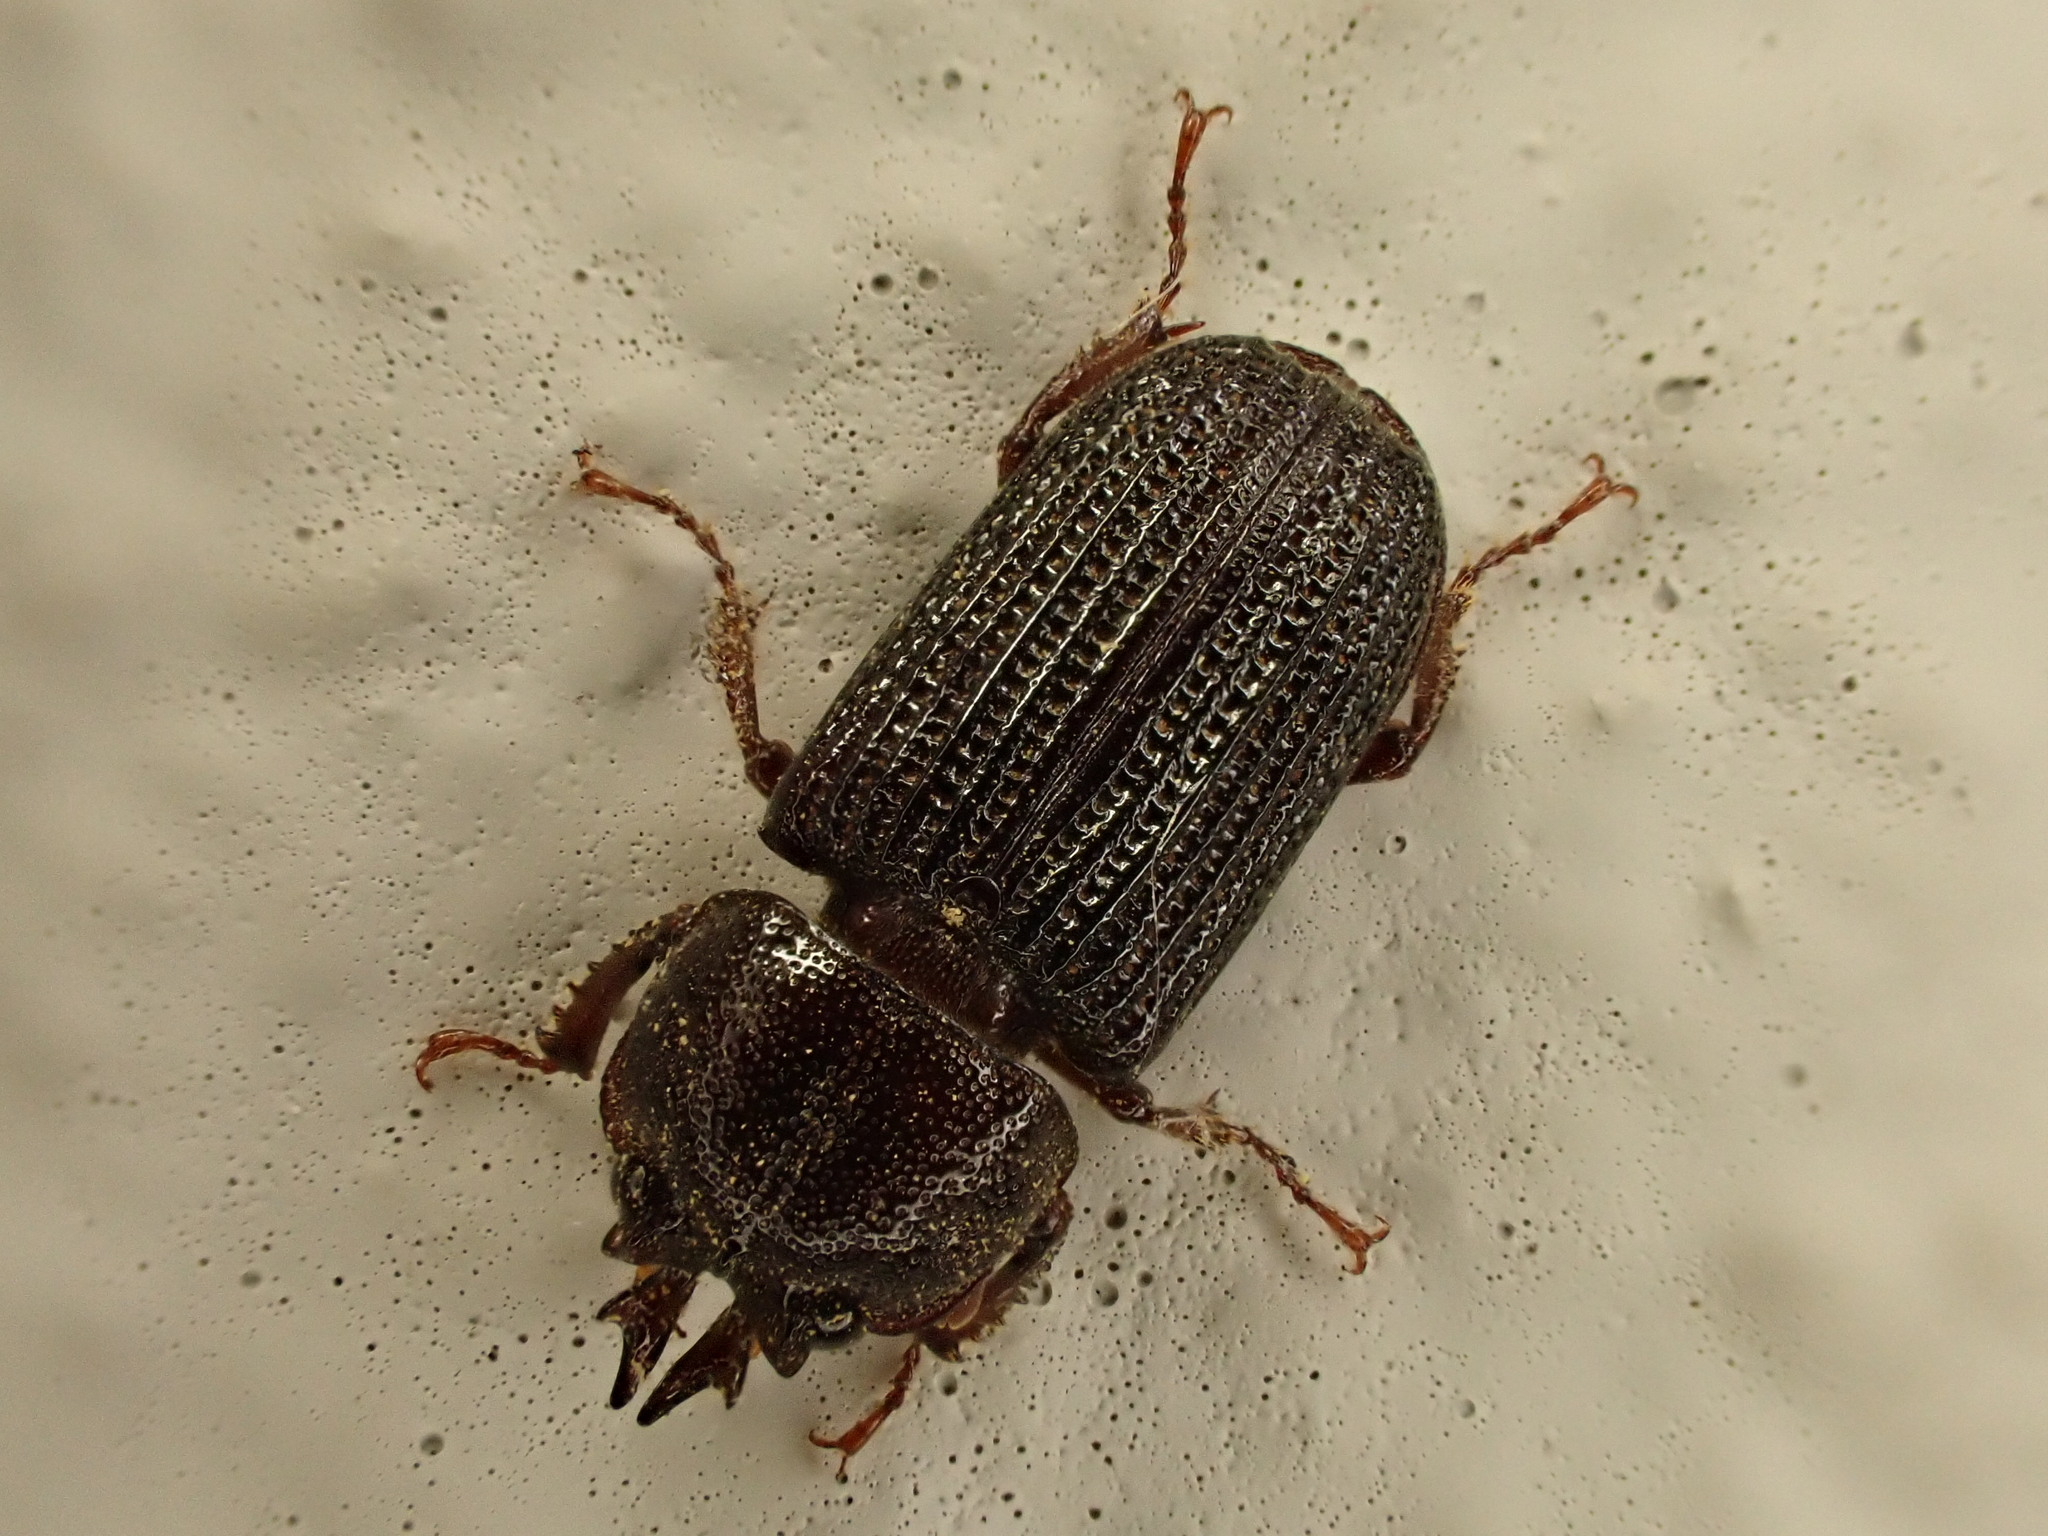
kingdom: Animalia
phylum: Arthropoda
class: Insecta
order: Coleoptera
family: Lucanidae
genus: Syndesus
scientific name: Syndesus cornutus
